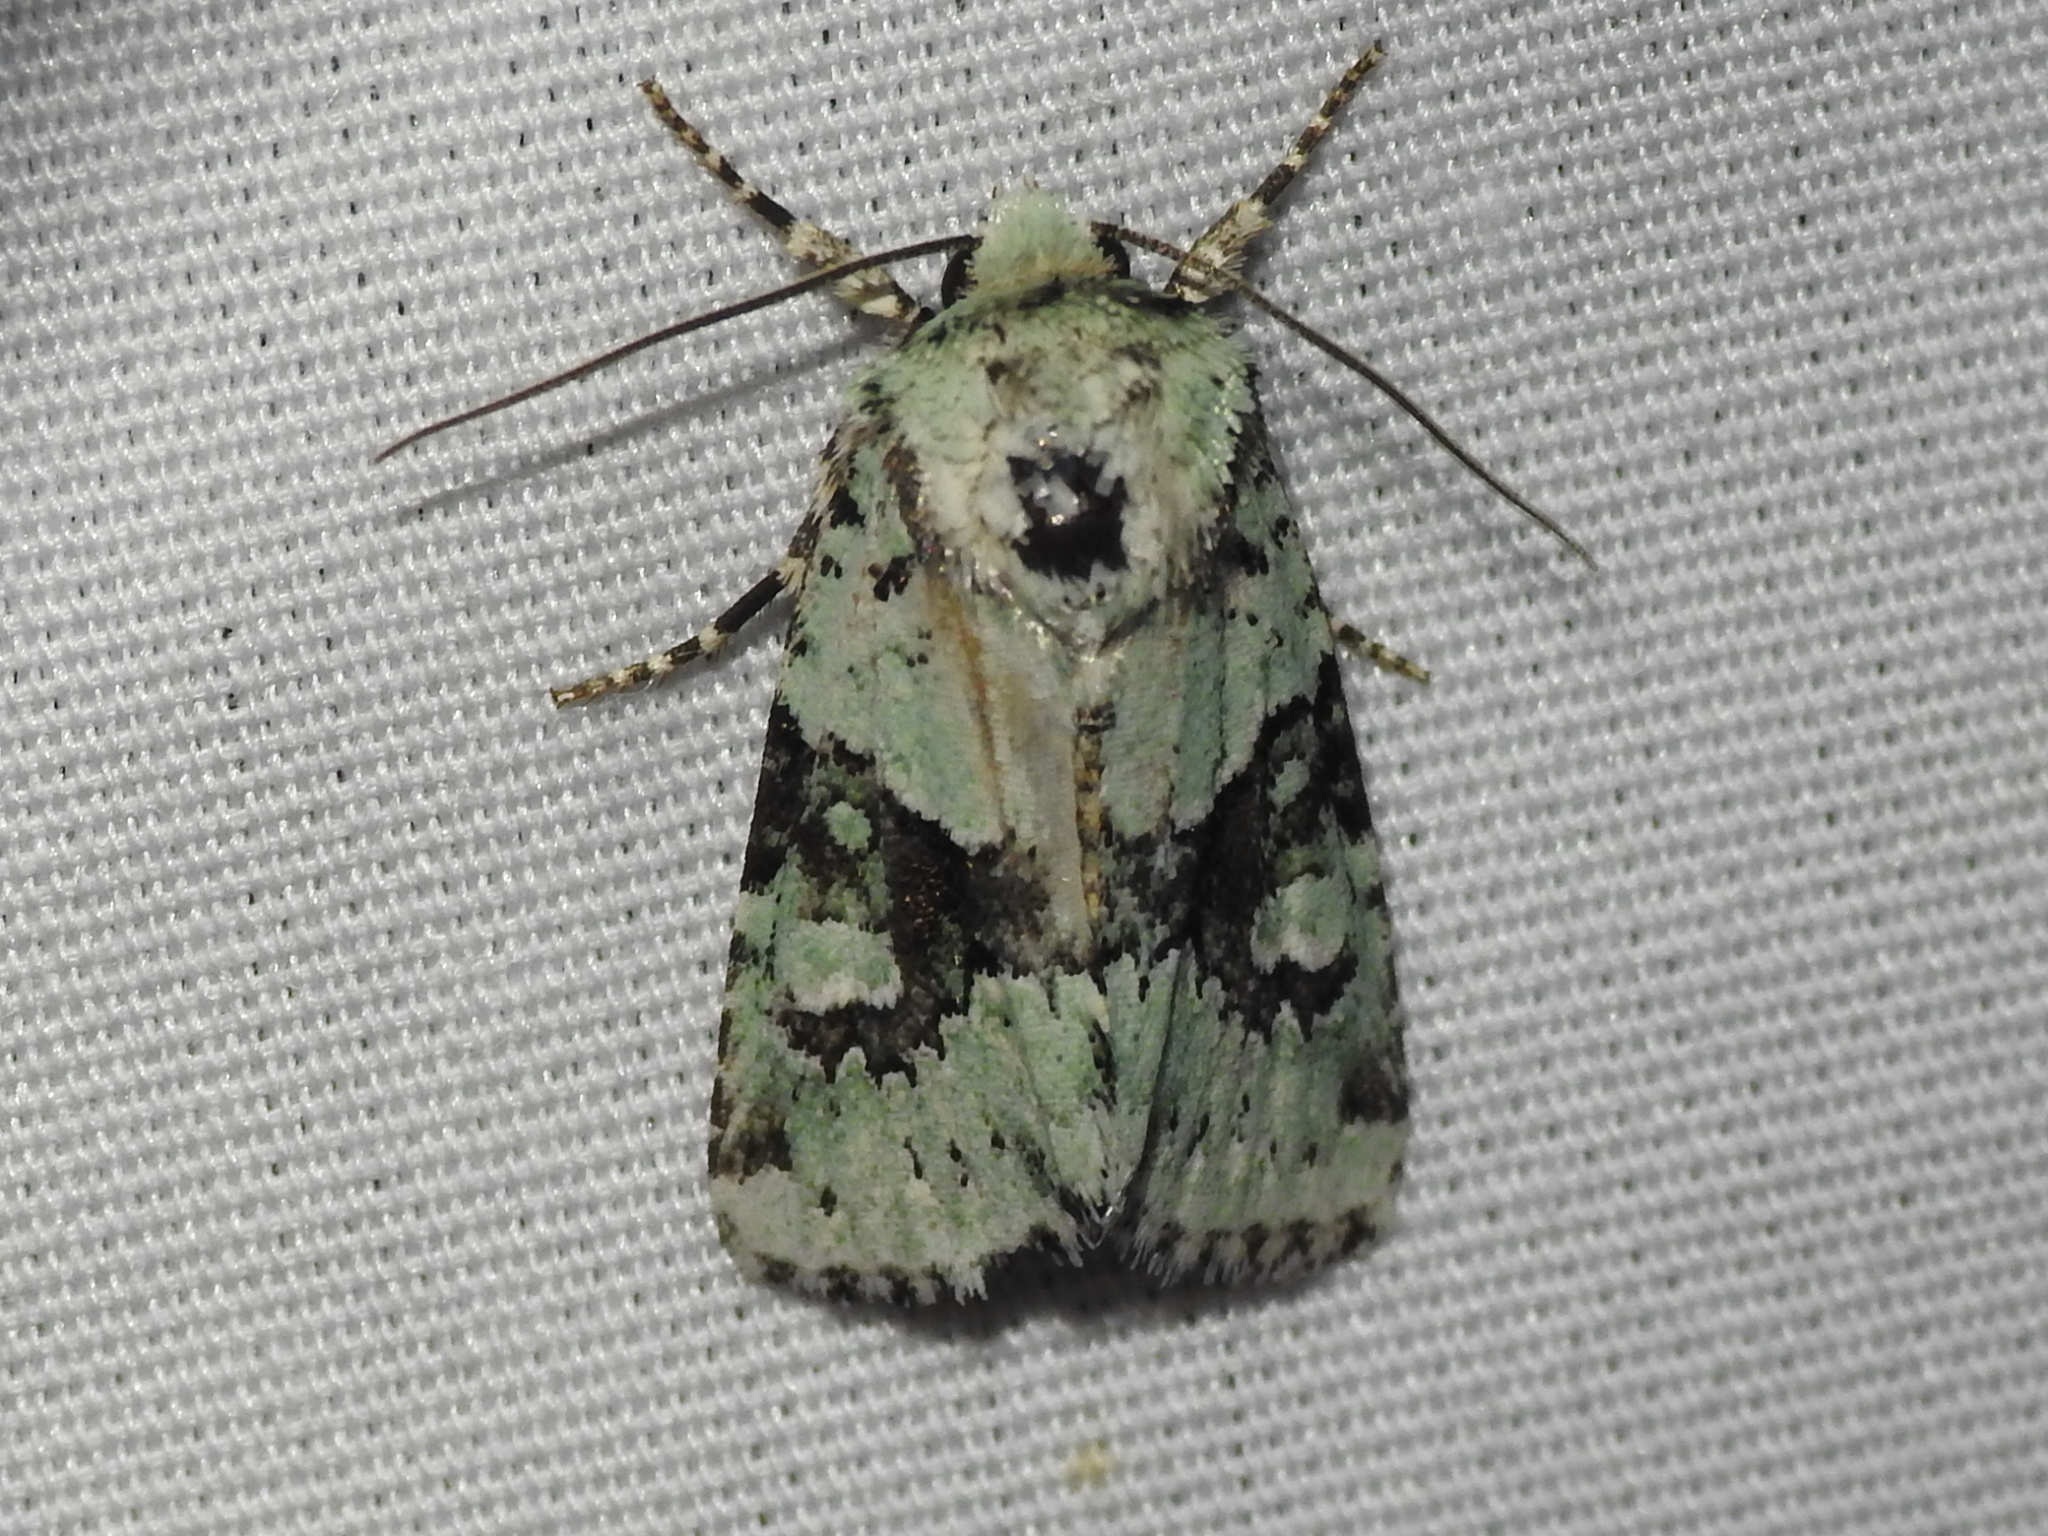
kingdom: Animalia
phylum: Arthropoda
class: Insecta
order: Lepidoptera
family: Noctuidae
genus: Lacinipolia
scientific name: Lacinipolia implicata
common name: Implicit arches
